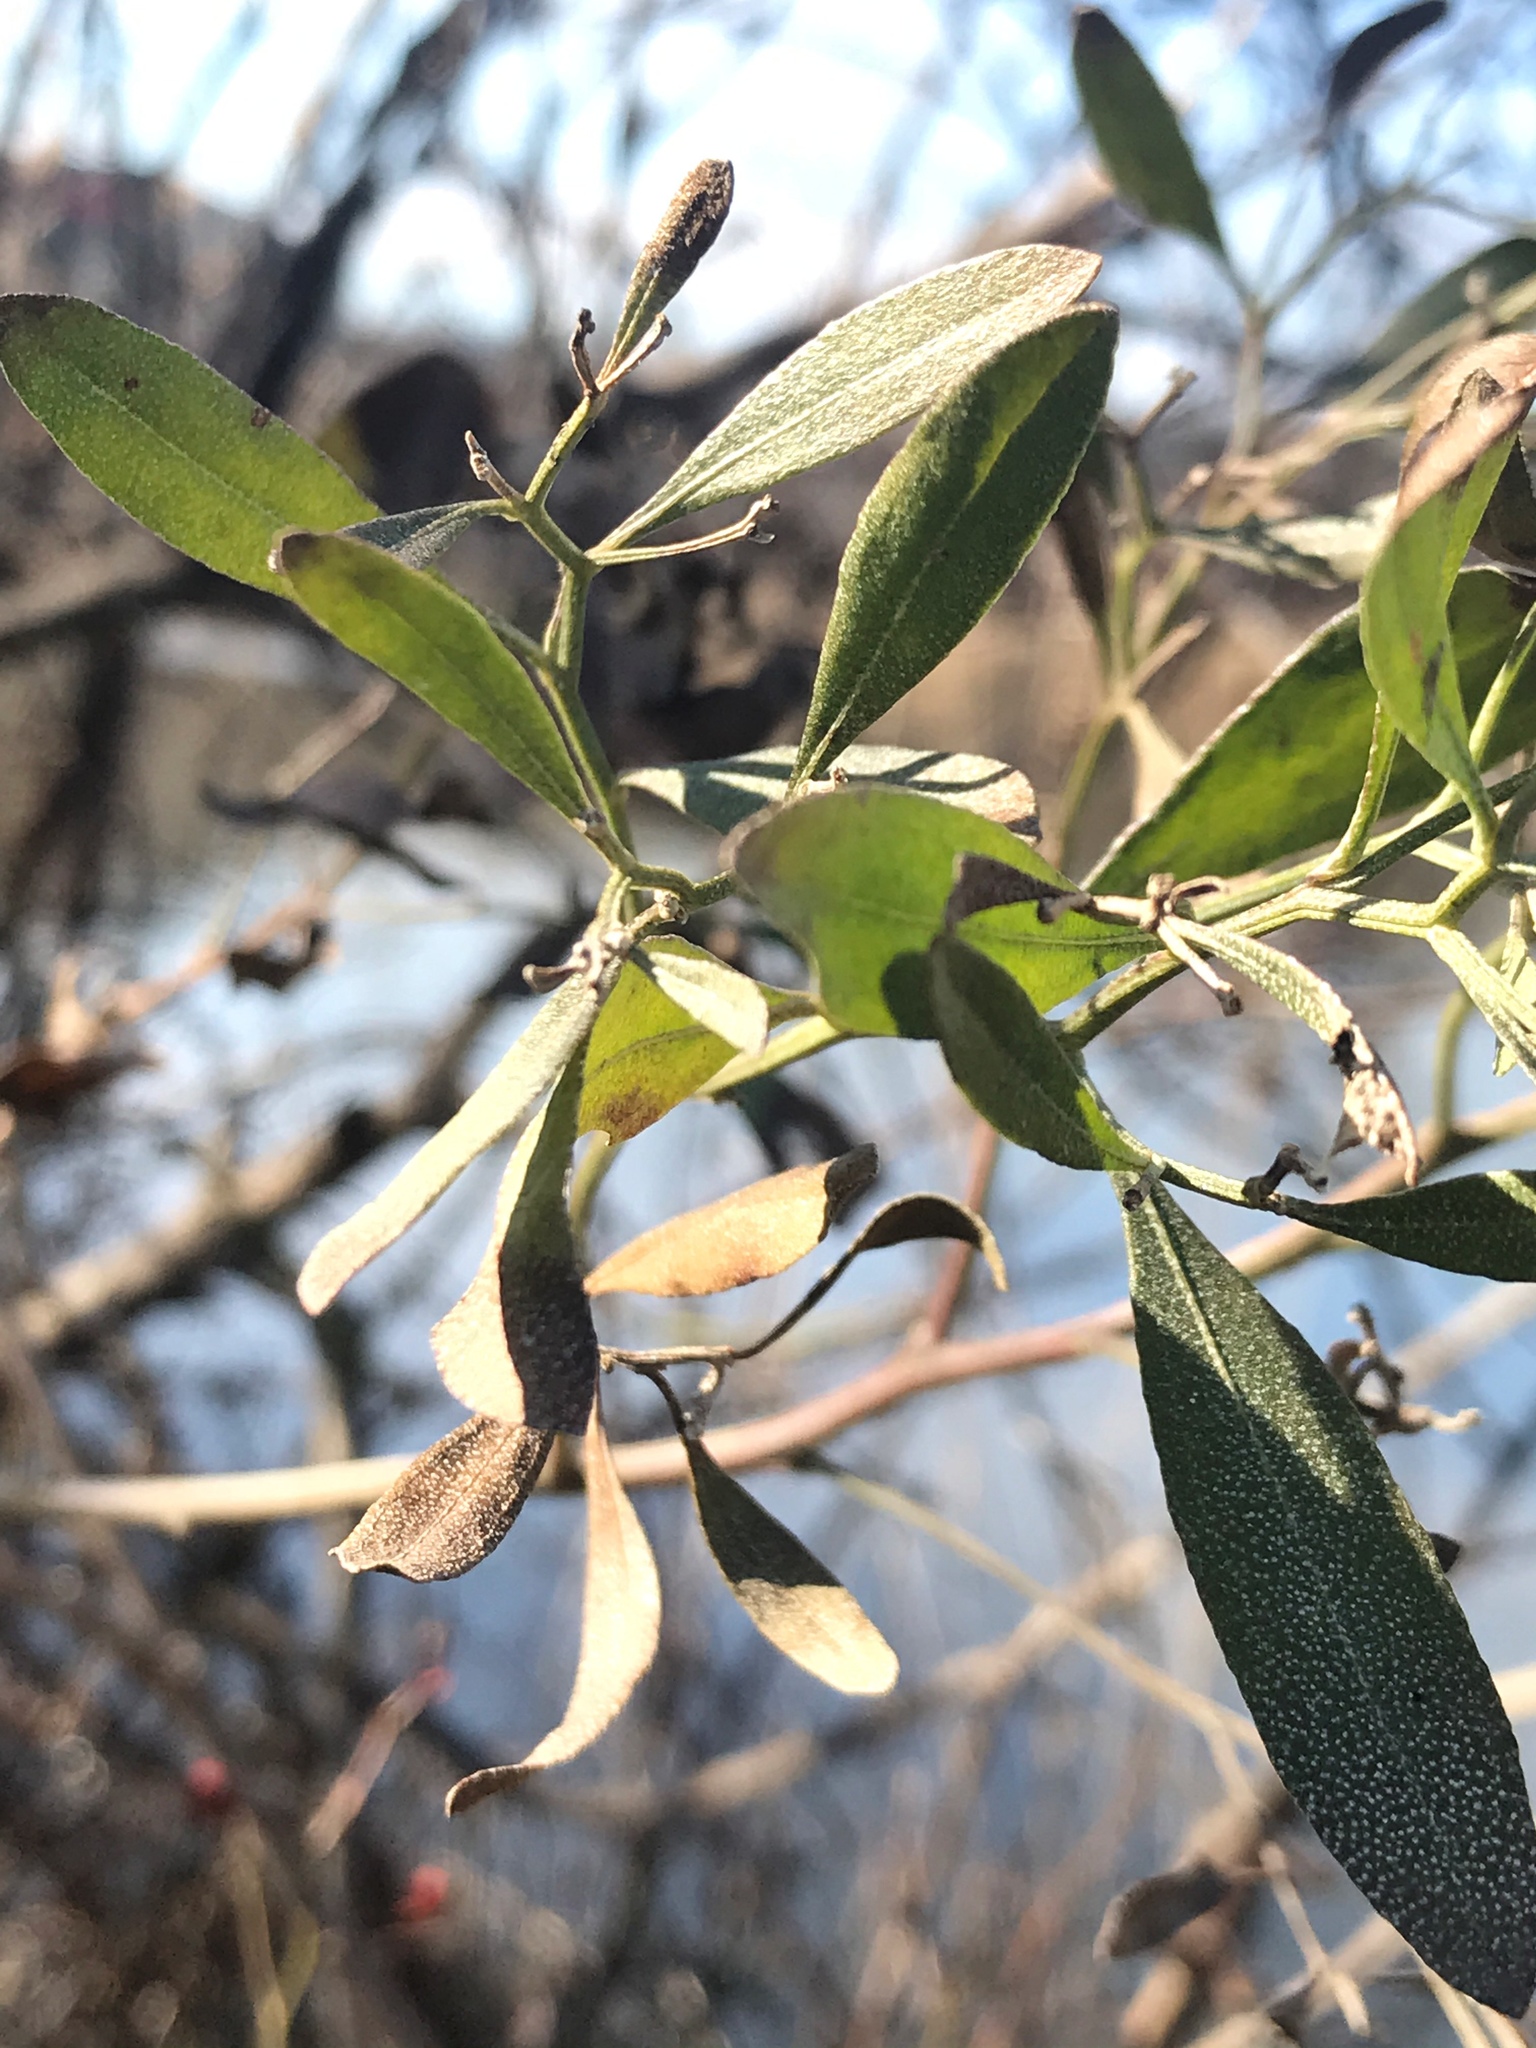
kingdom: Plantae
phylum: Tracheophyta
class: Magnoliopsida
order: Asterales
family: Asteraceae
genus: Baccharis
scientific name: Baccharis halimifolia
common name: Eastern baccharis
